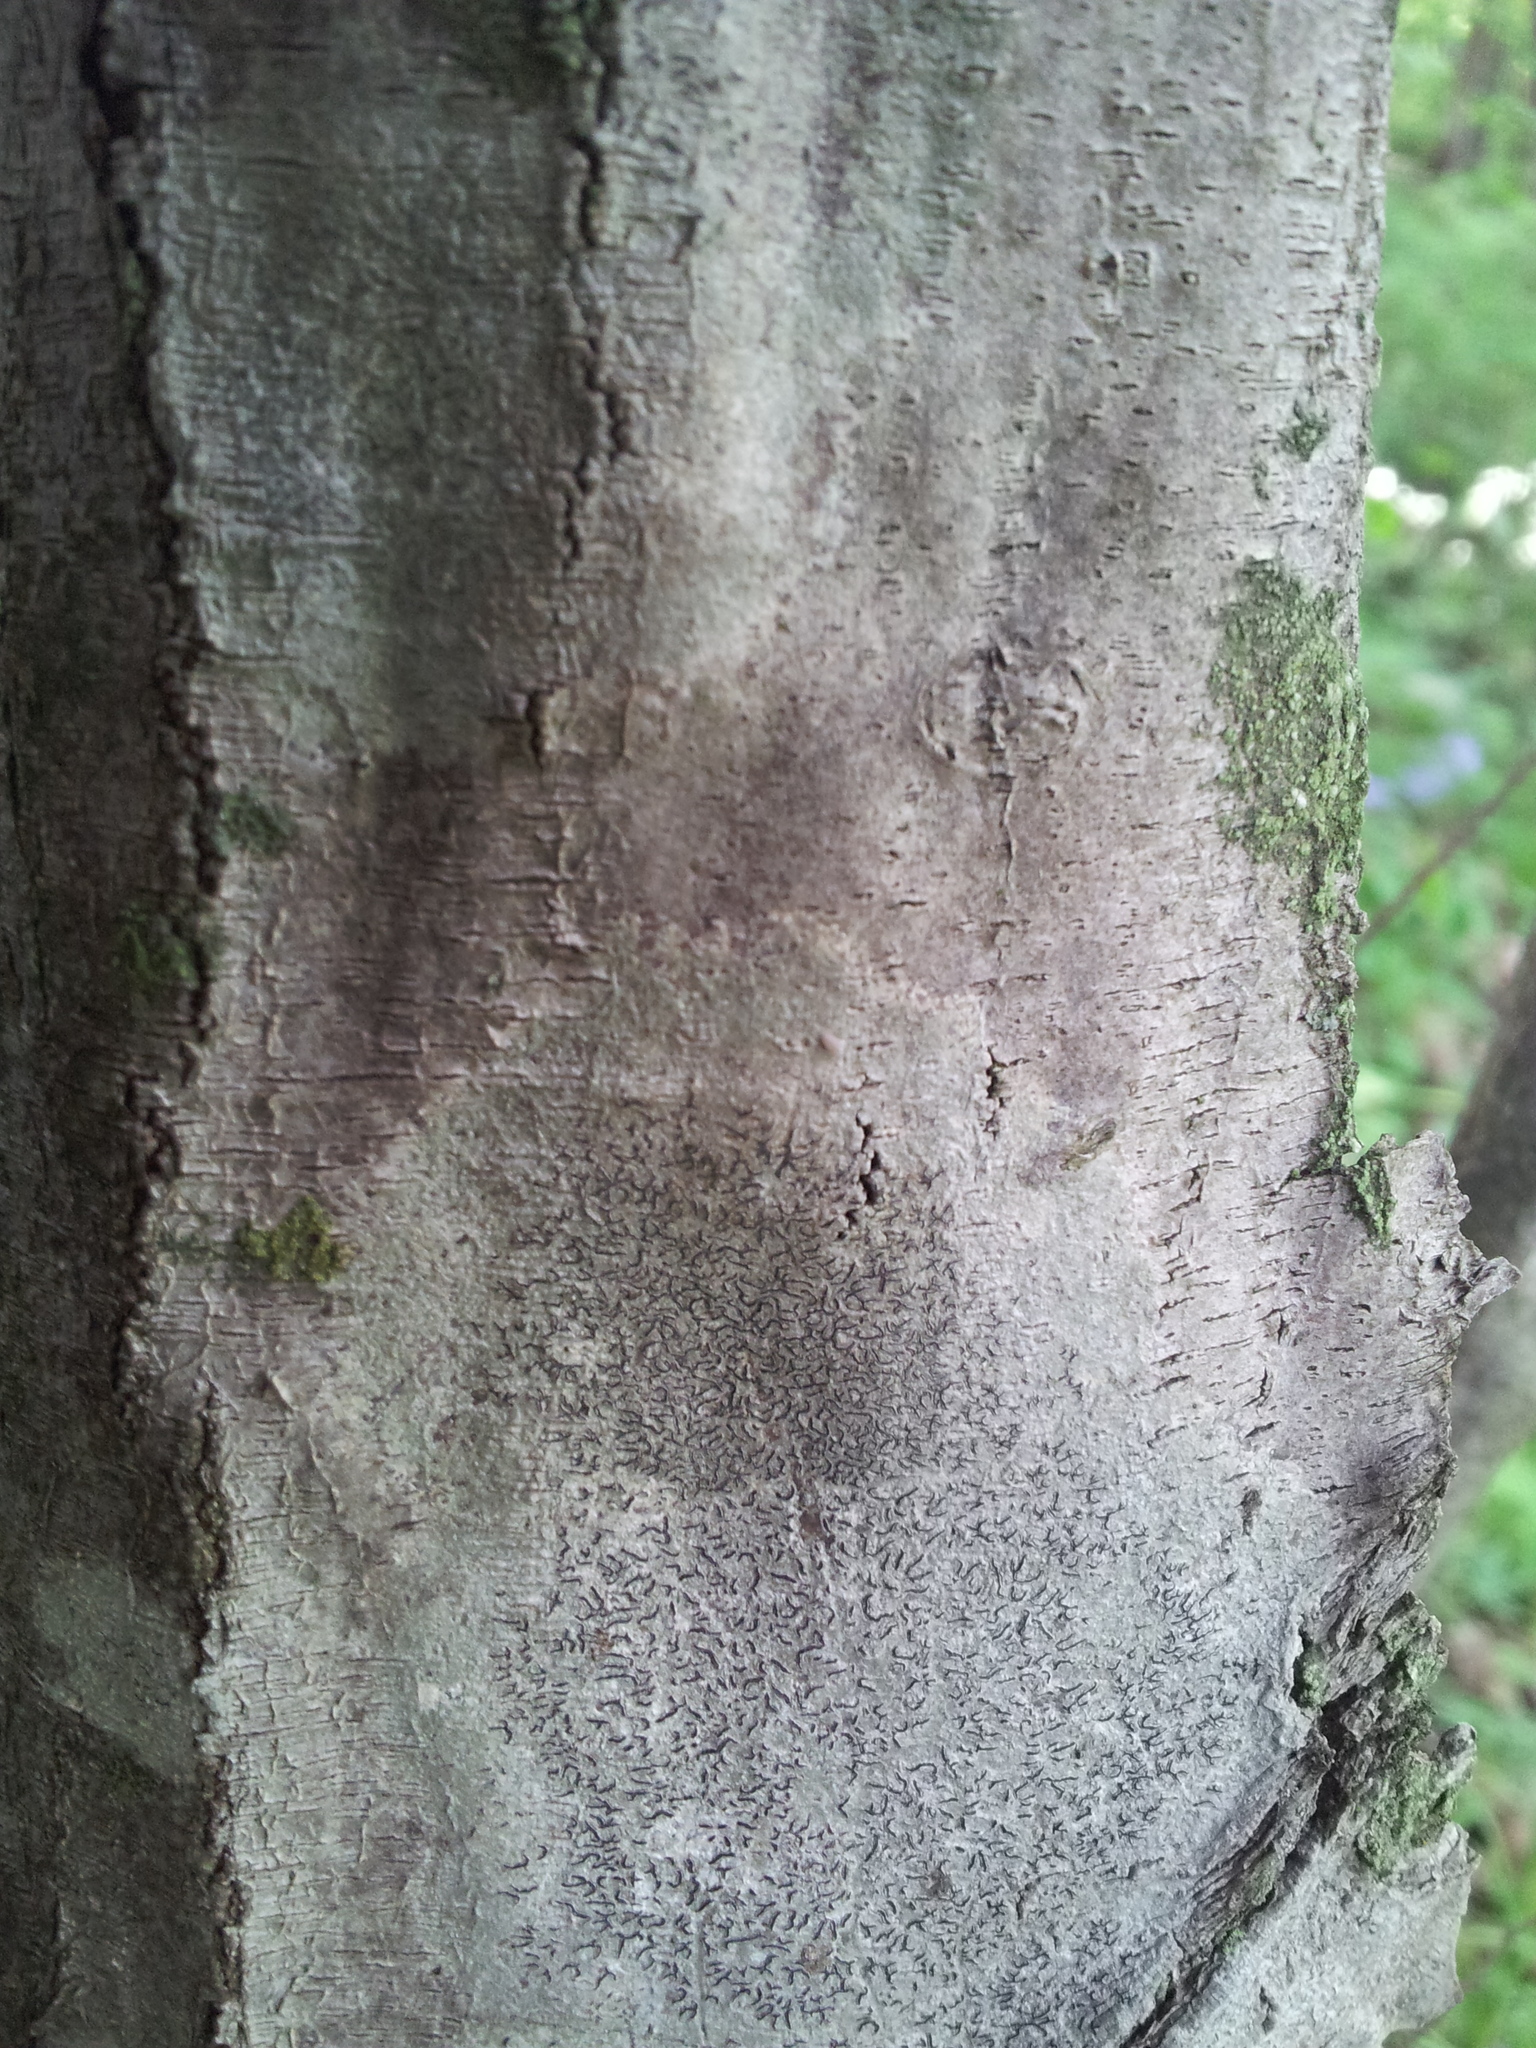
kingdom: Fungi
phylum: Ascomycota
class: Lecanoromycetes
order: Ostropales
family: Graphidaceae
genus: Graphis
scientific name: Graphis scripta
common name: Script lichen
